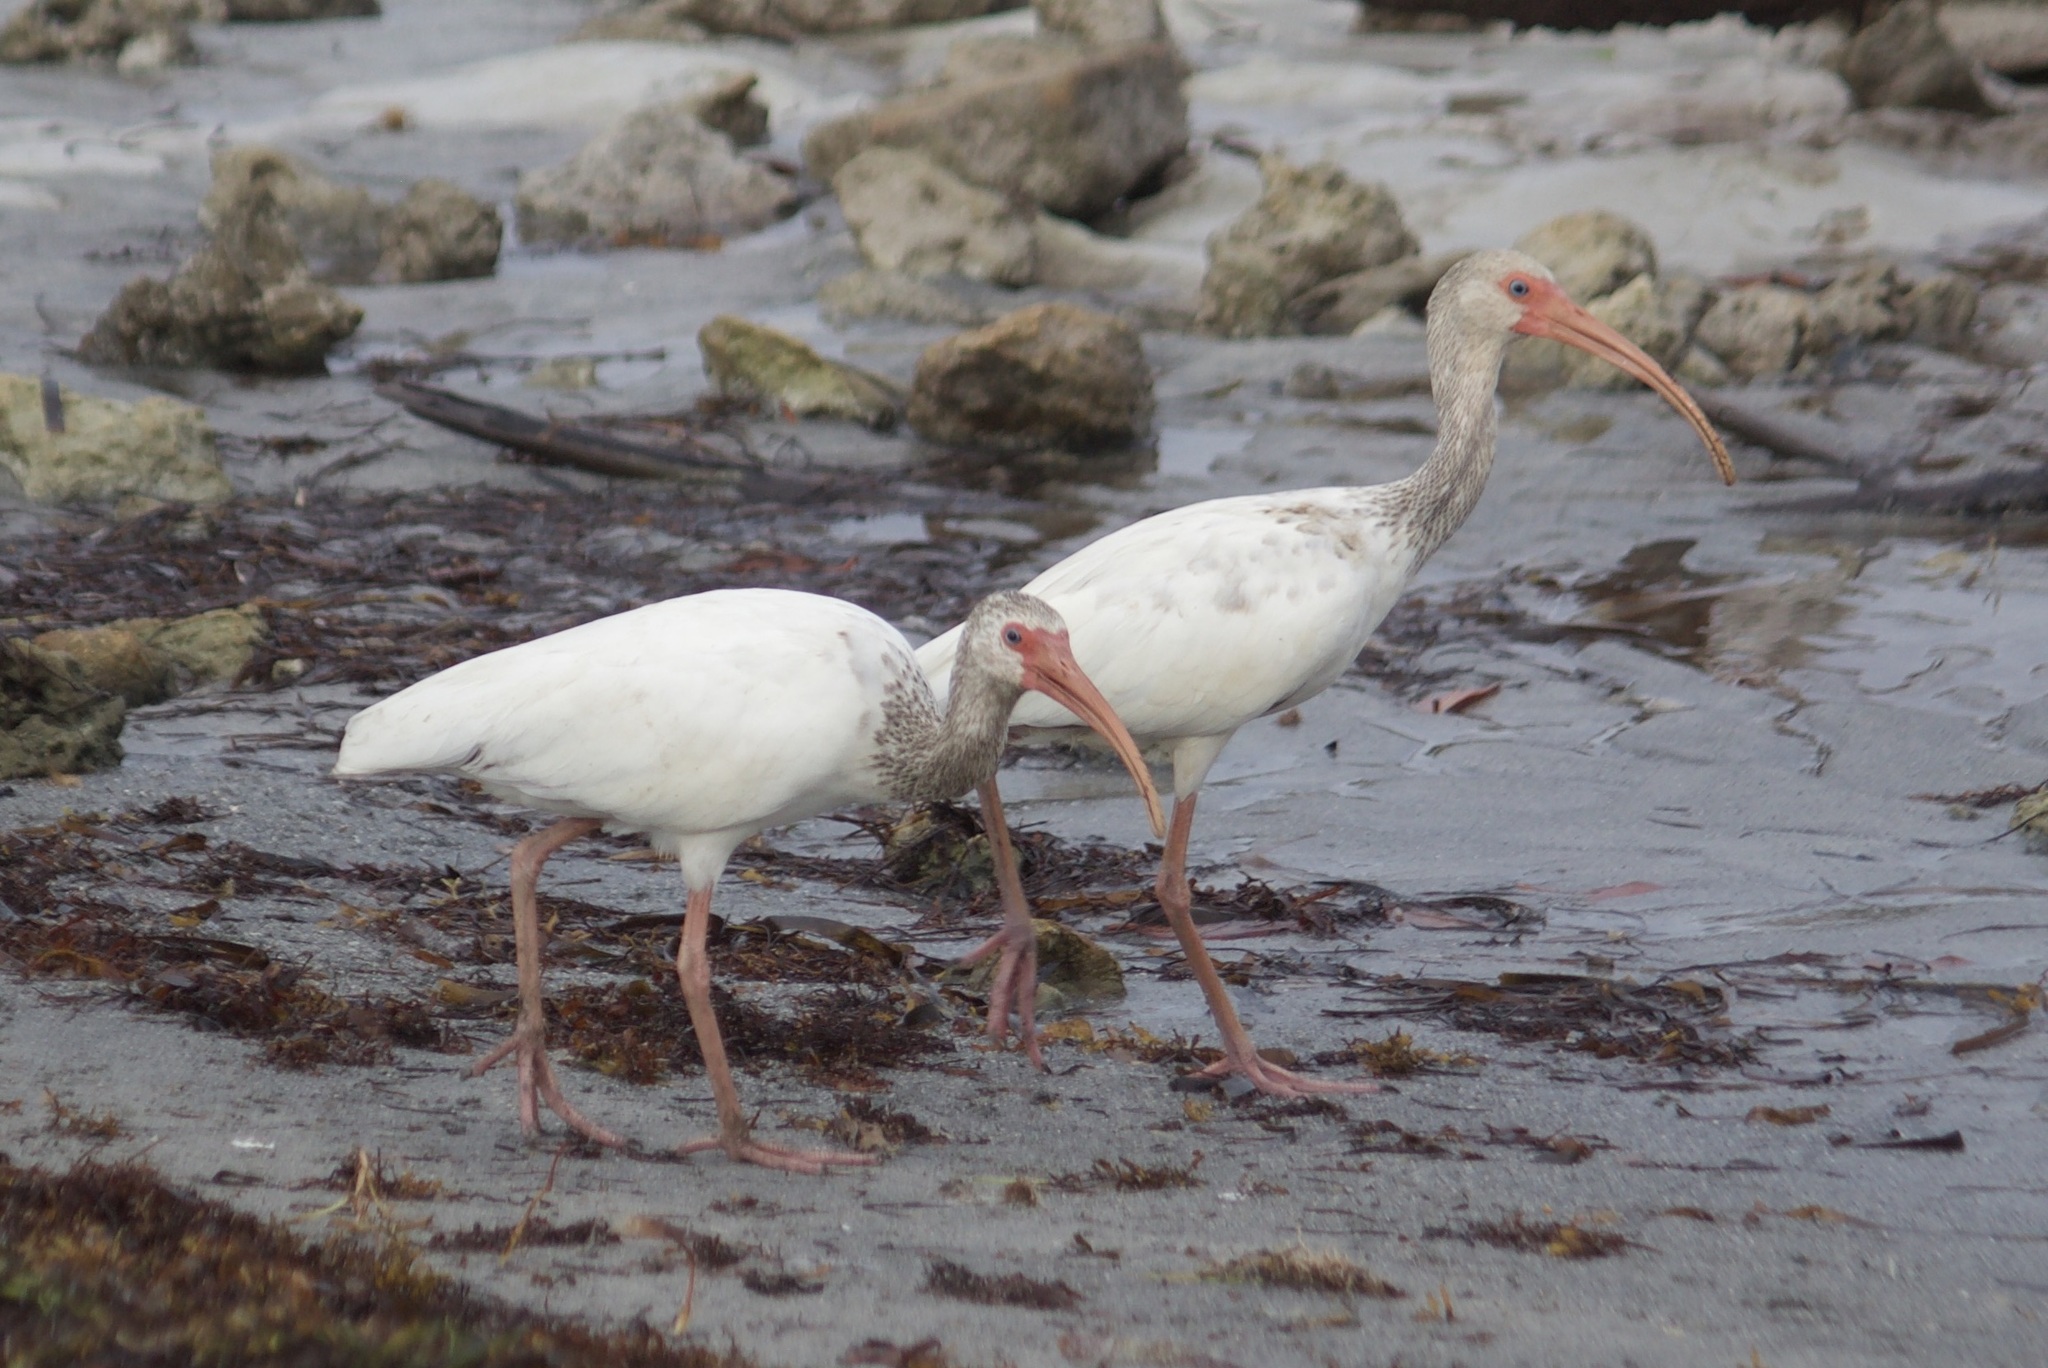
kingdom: Animalia
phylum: Chordata
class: Aves
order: Pelecaniformes
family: Threskiornithidae
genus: Eudocimus
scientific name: Eudocimus albus
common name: White ibis
